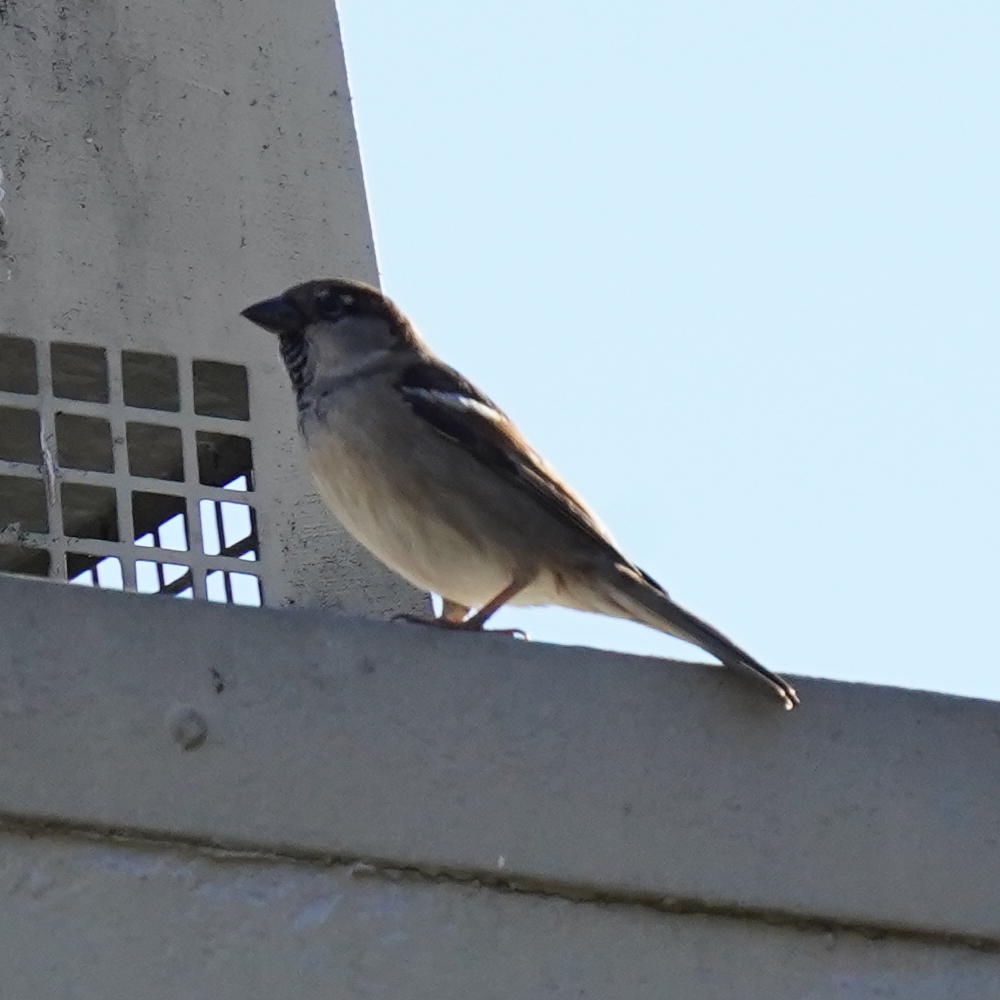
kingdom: Animalia
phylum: Chordata
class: Aves
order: Passeriformes
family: Passeridae
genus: Passer
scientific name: Passer domesticus
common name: House sparrow
